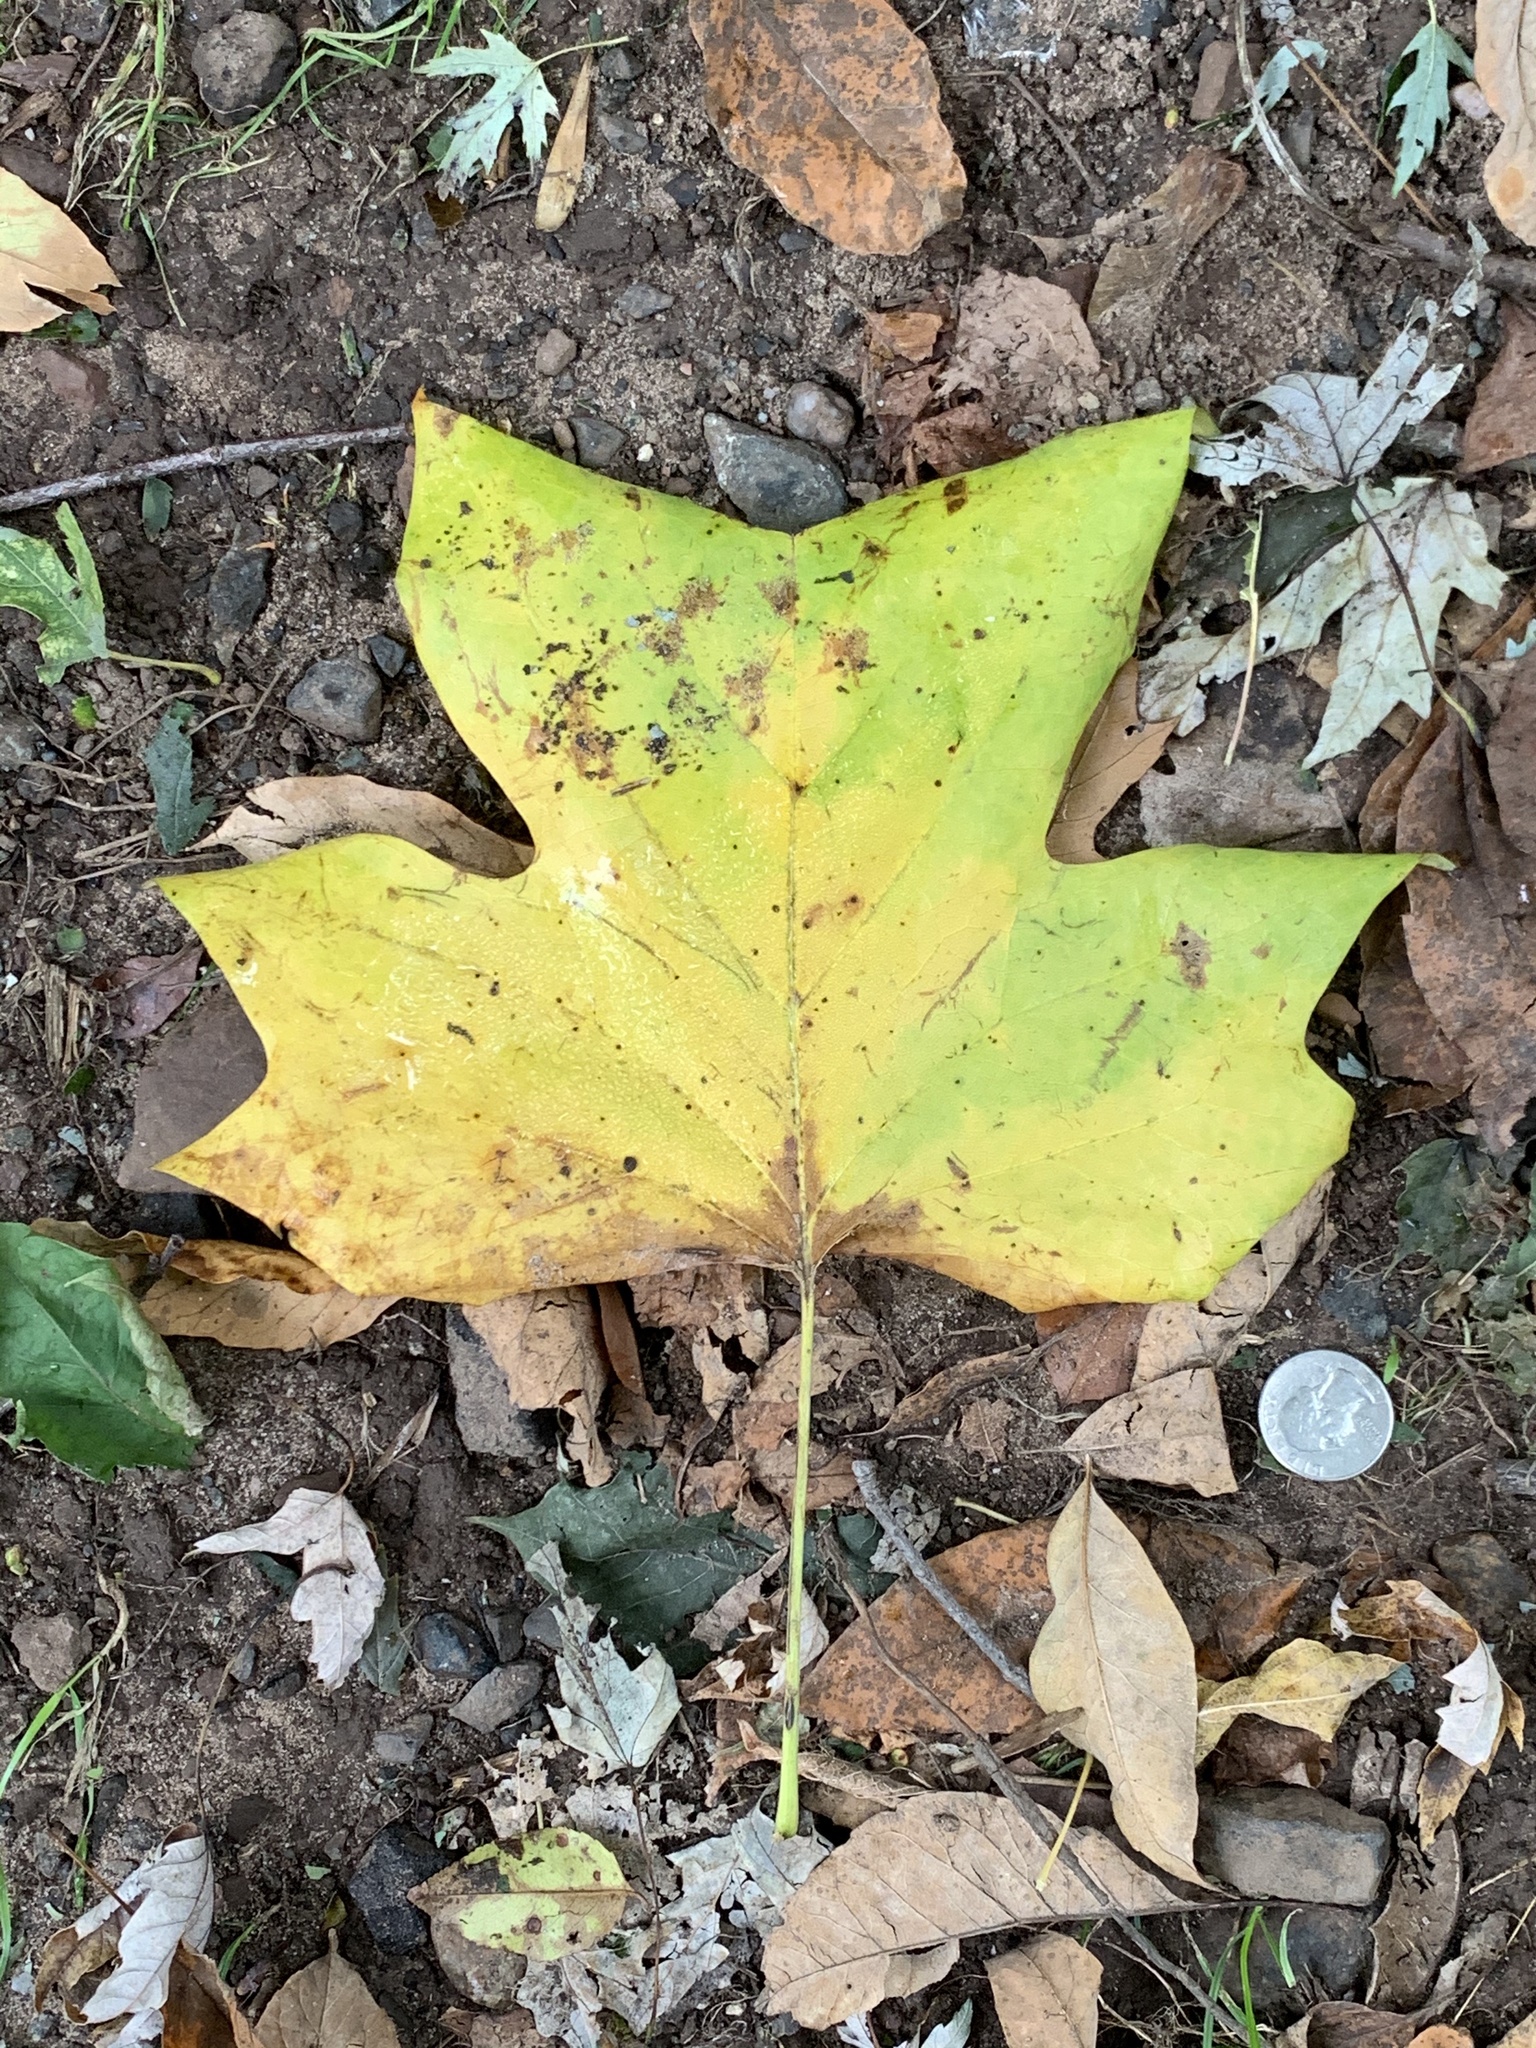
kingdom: Plantae
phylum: Tracheophyta
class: Magnoliopsida
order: Magnoliales
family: Magnoliaceae
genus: Liriodendron
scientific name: Liriodendron tulipifera
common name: Tulip tree
